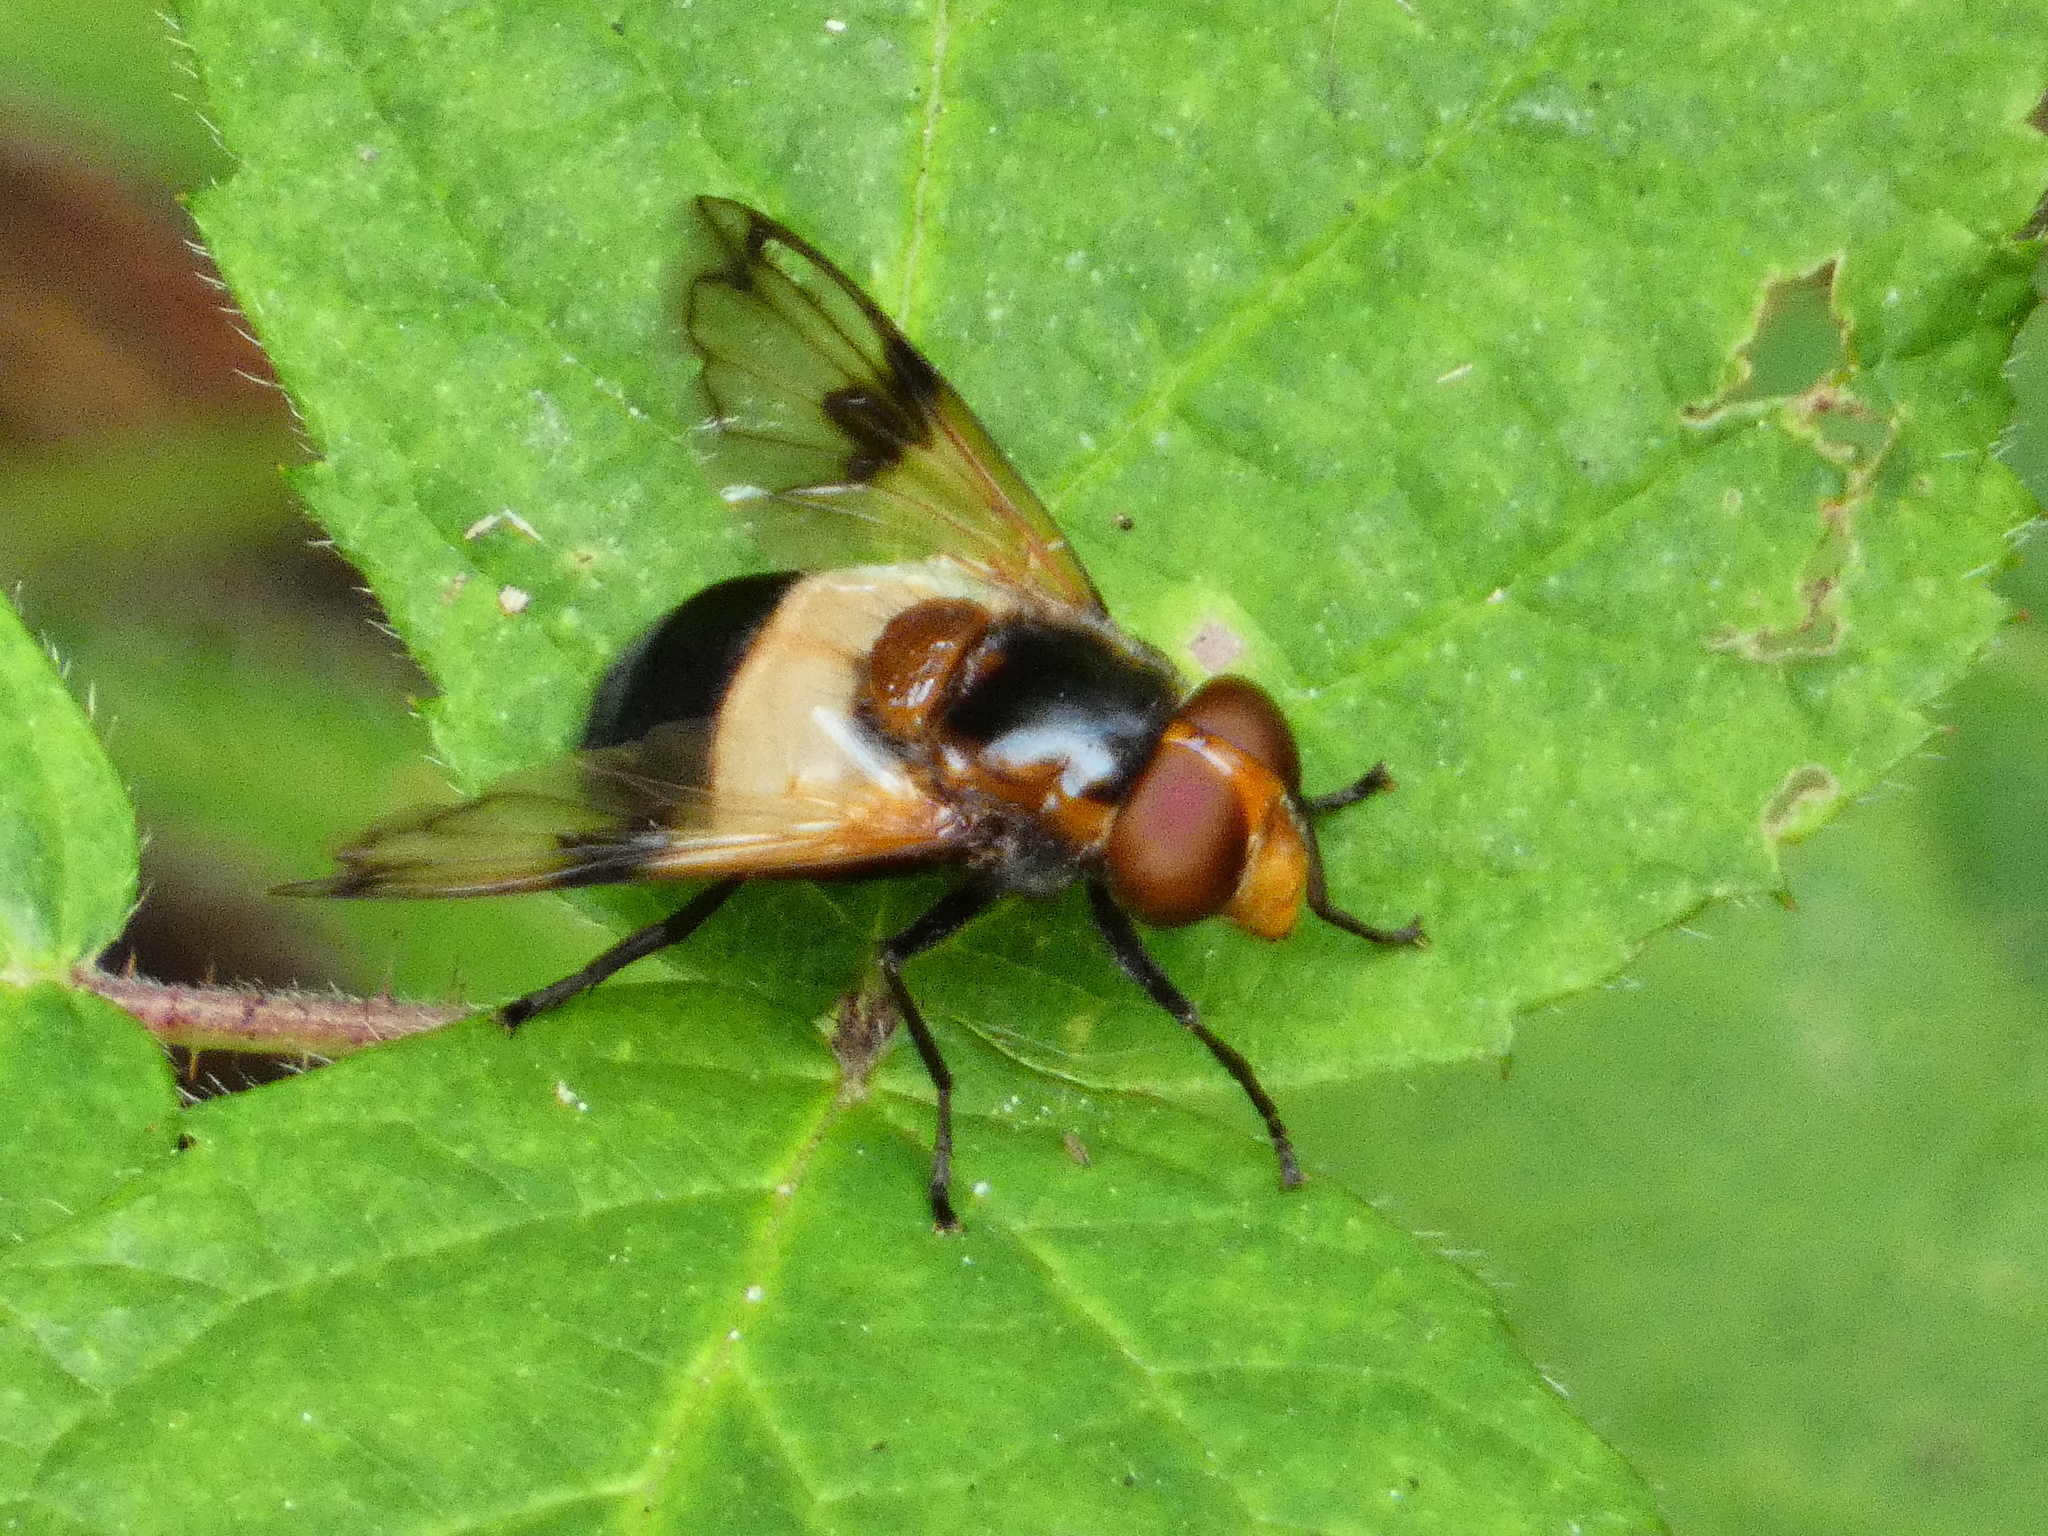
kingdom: Animalia
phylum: Arthropoda
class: Insecta
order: Diptera
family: Syrphidae
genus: Volucella
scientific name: Volucella pellucens
